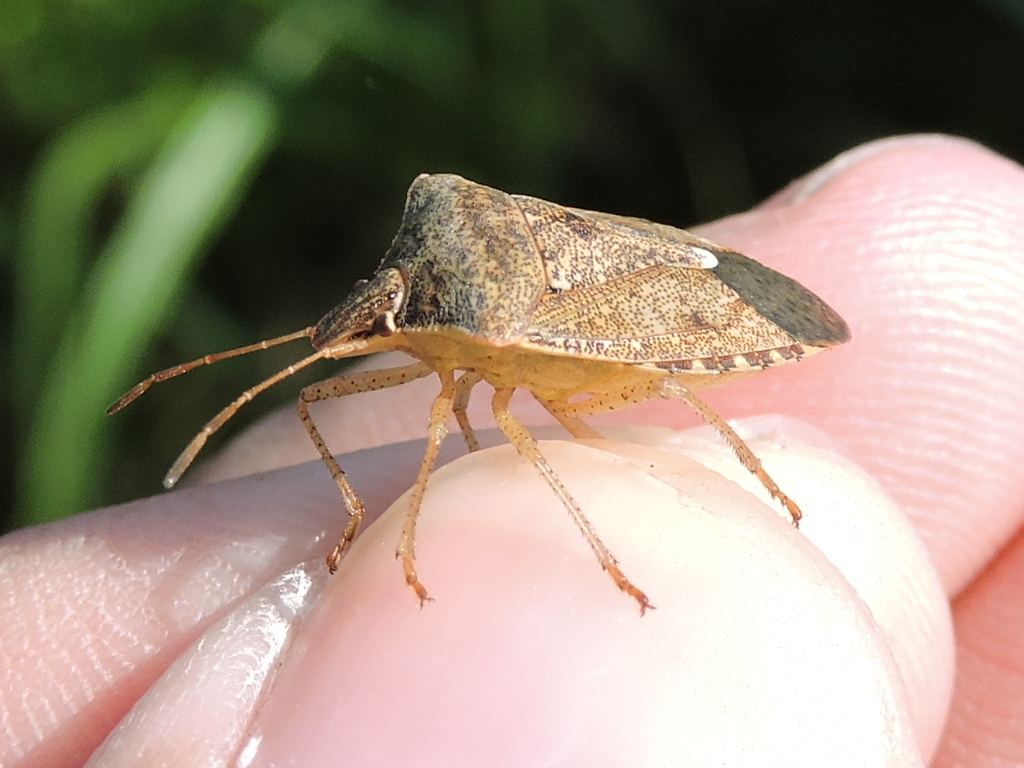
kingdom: Animalia
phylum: Arthropoda
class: Insecta
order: Hemiptera
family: Pentatomidae
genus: Euschistus
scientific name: Euschistus servus
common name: Brown stink bug
